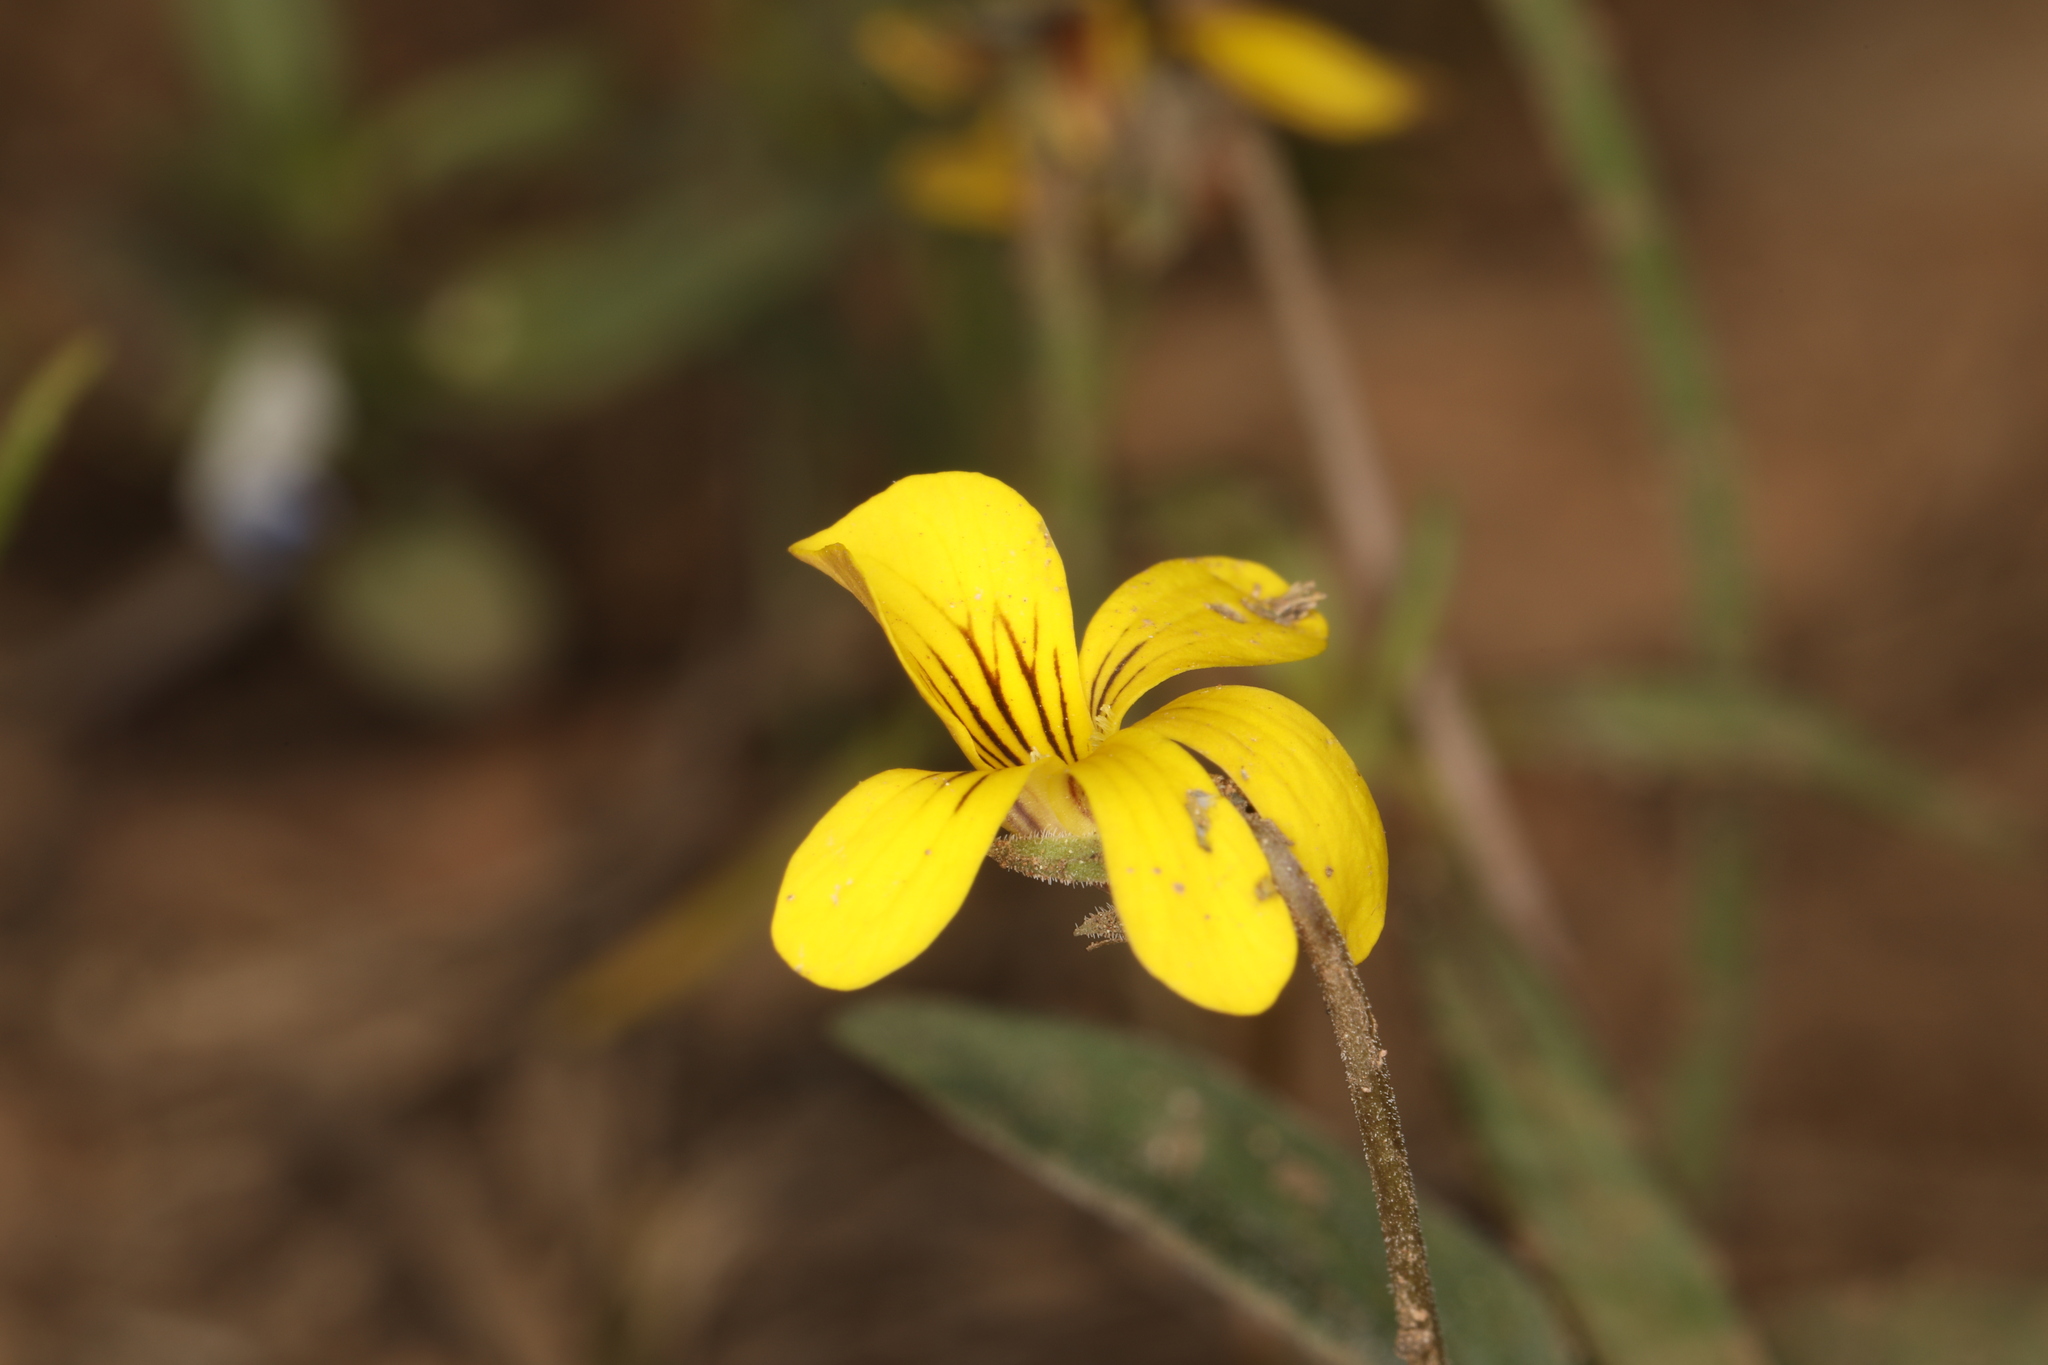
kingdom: Plantae
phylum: Tracheophyta
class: Magnoliopsida
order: Malpighiales
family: Violaceae
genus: Viola
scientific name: Viola purpurea
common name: Pine violet
